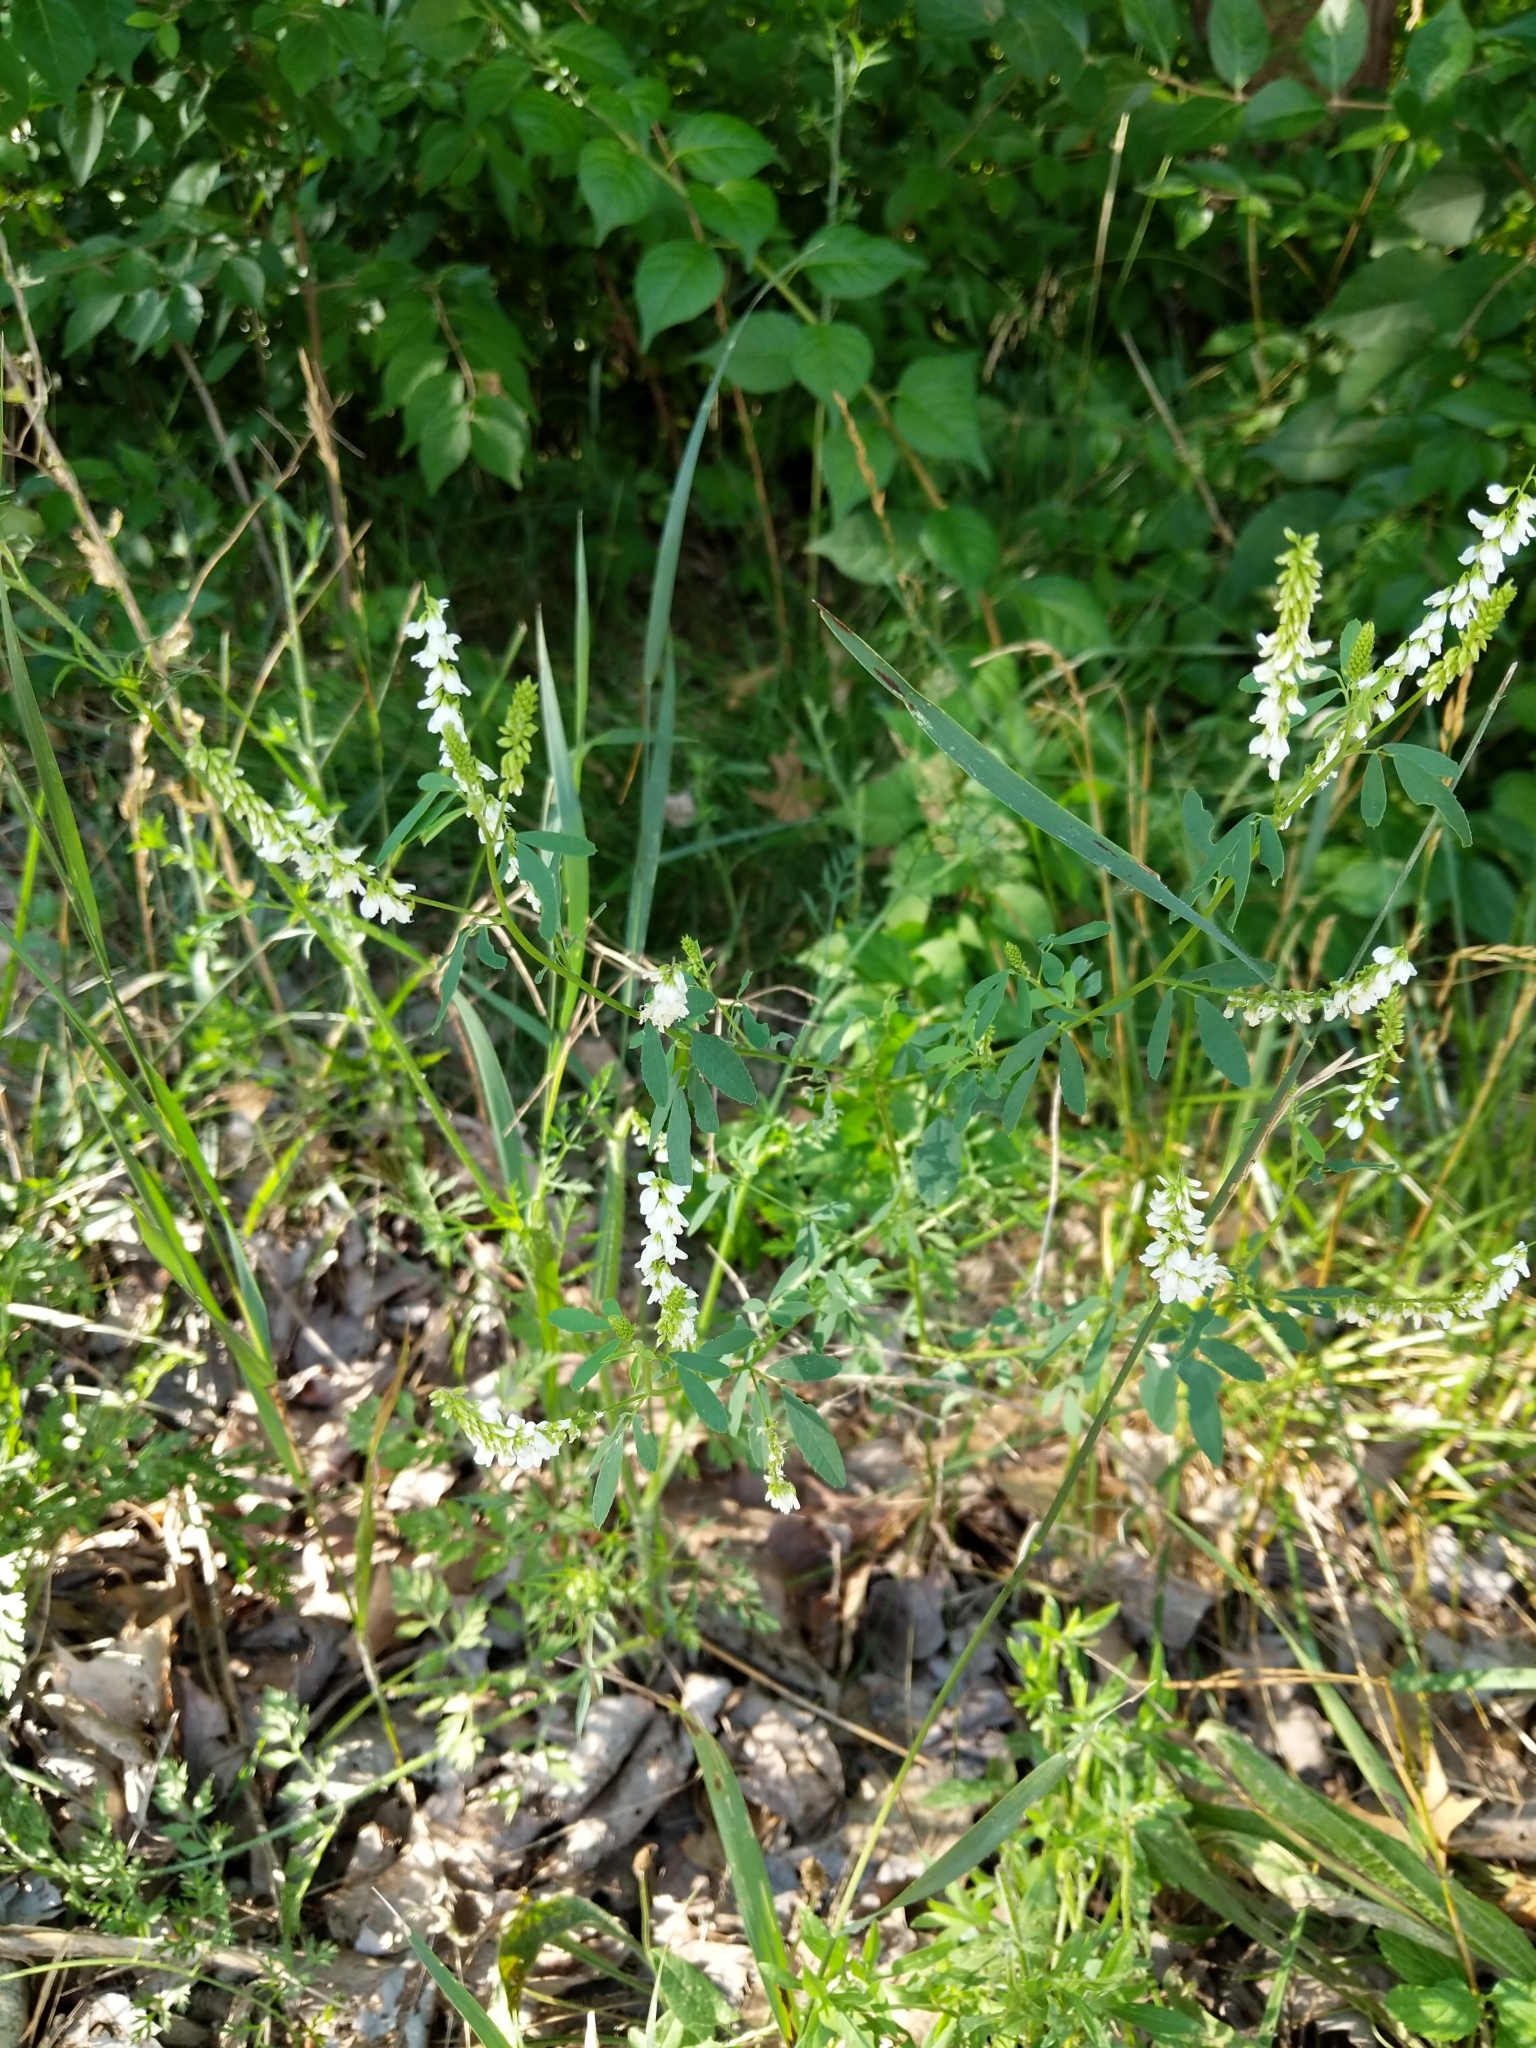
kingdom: Plantae
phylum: Tracheophyta
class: Magnoliopsida
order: Fabales
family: Fabaceae
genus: Melilotus
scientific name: Melilotus albus
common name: White melilot
